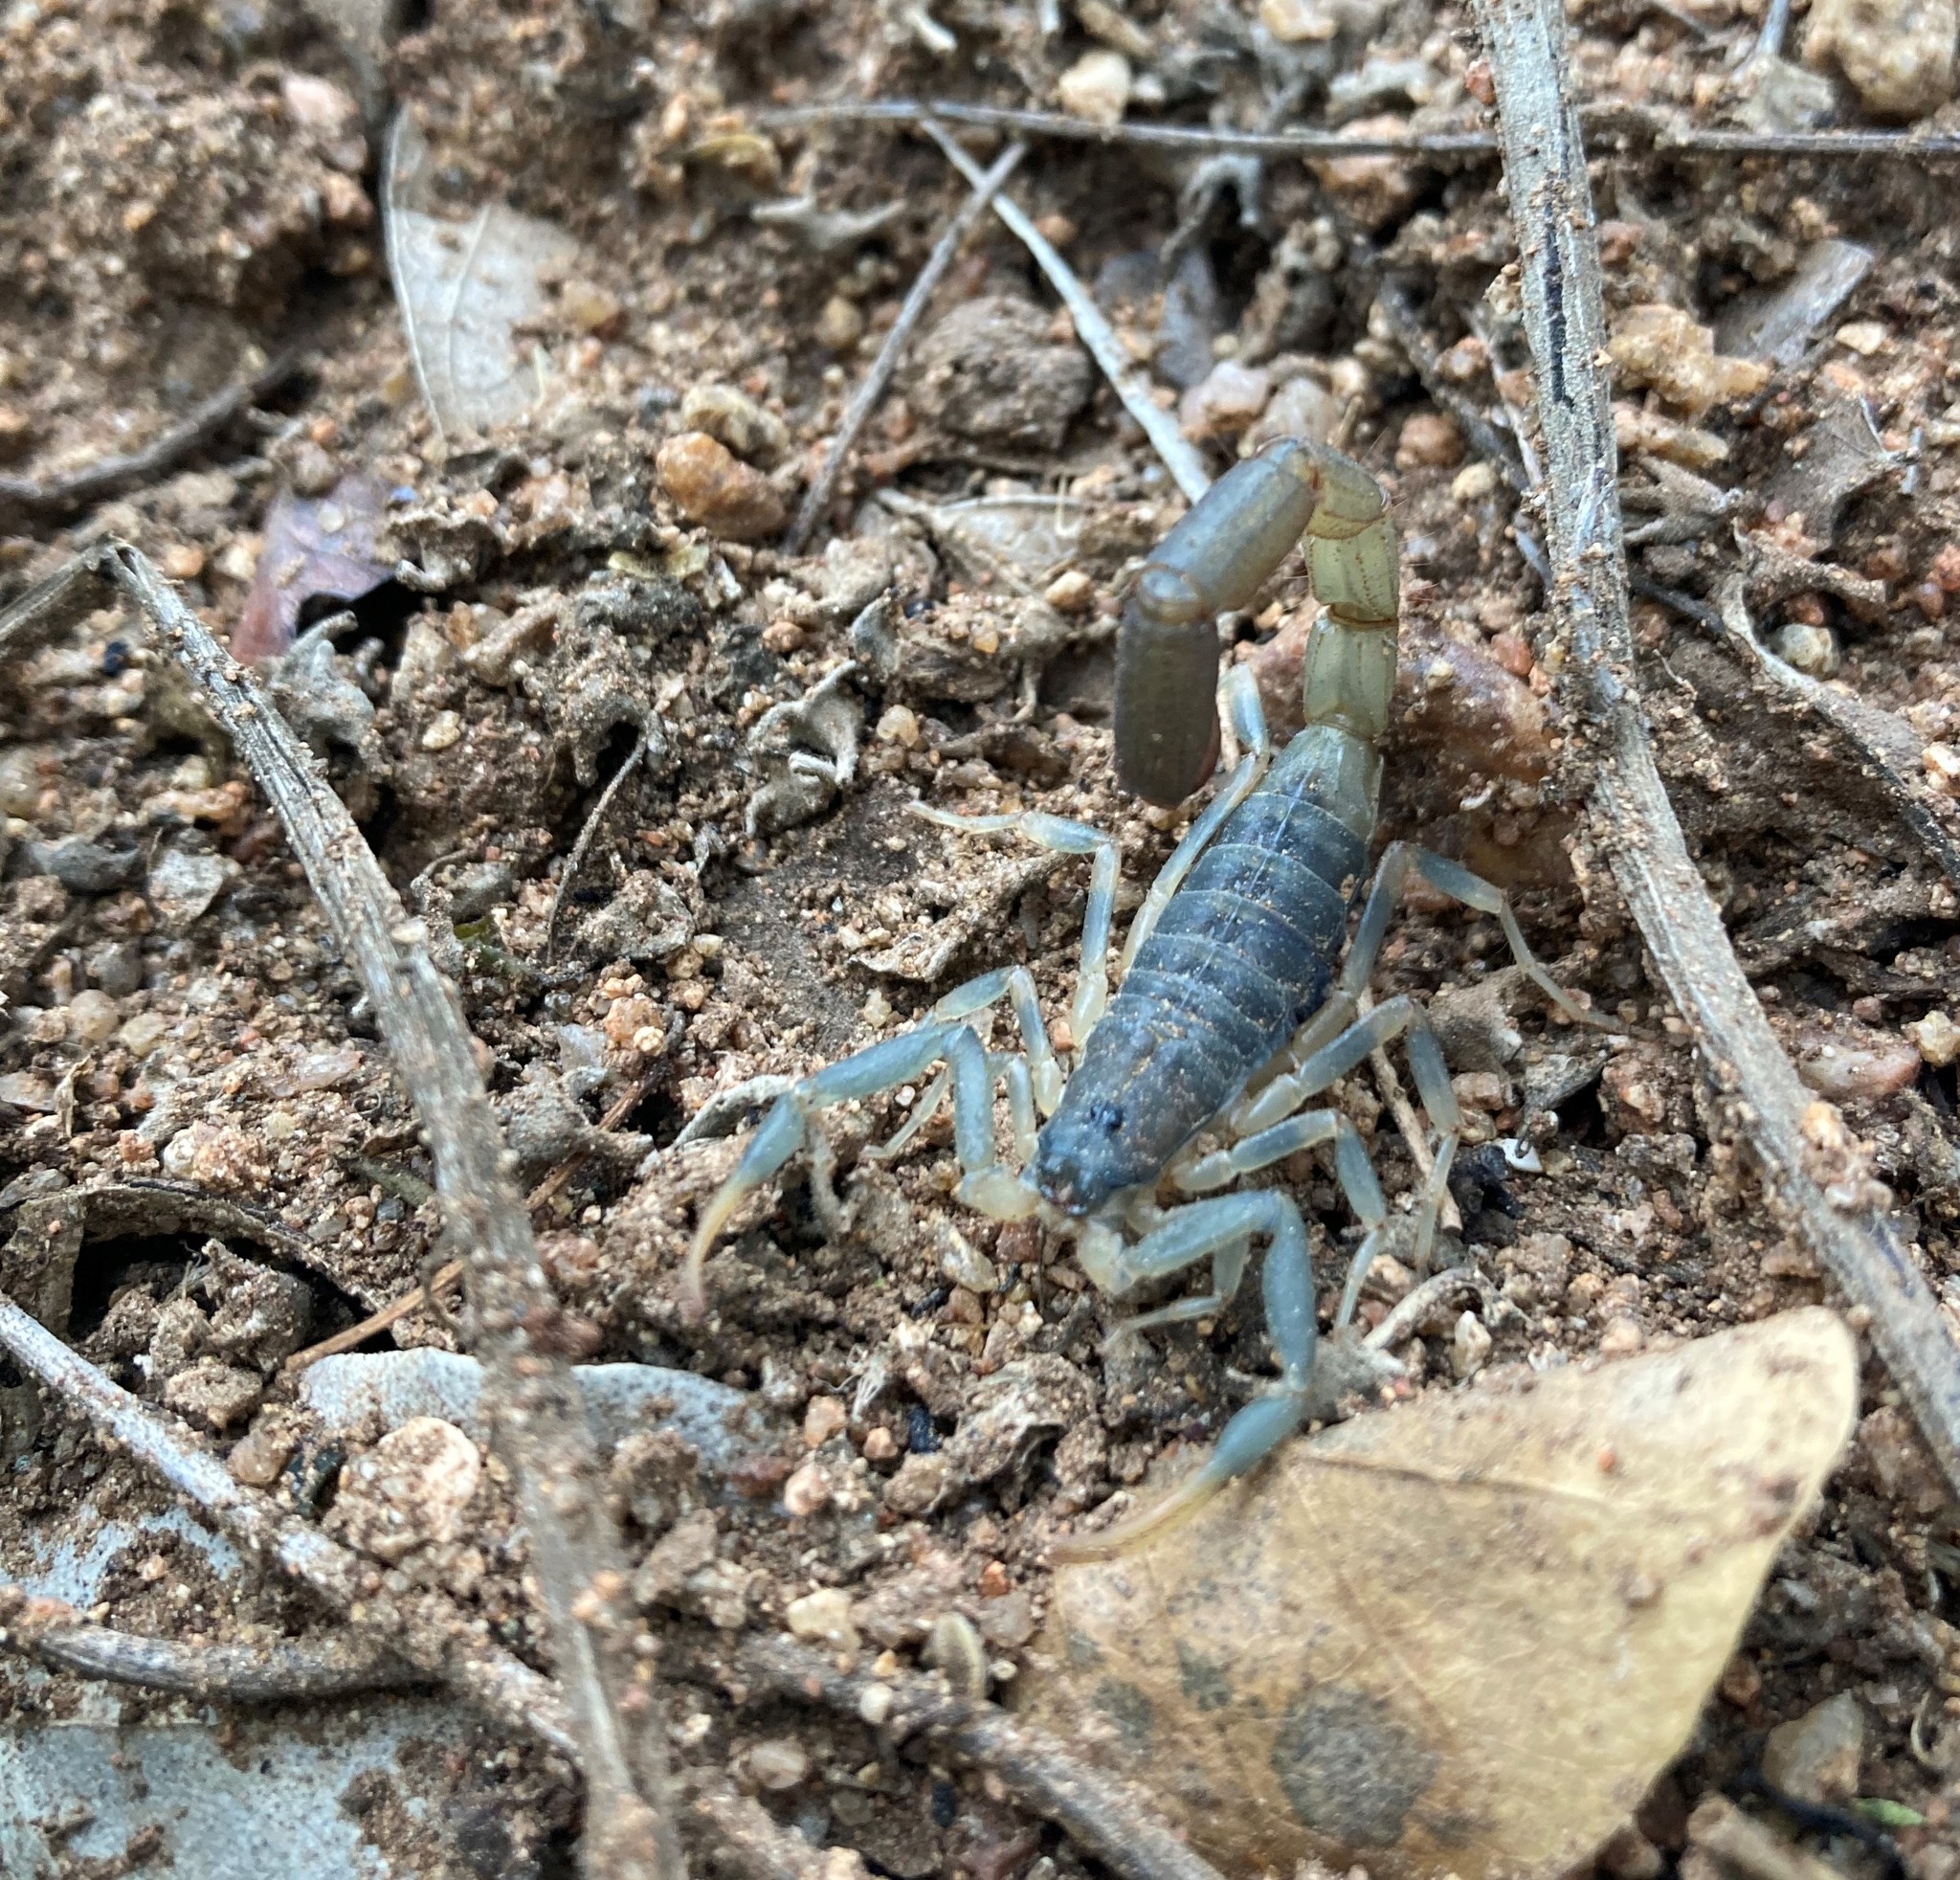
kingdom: Animalia
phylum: Arthropoda
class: Arachnida
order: Scorpiones
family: Buthidae
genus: Uroplectes
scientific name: Uroplectes olivaceus
